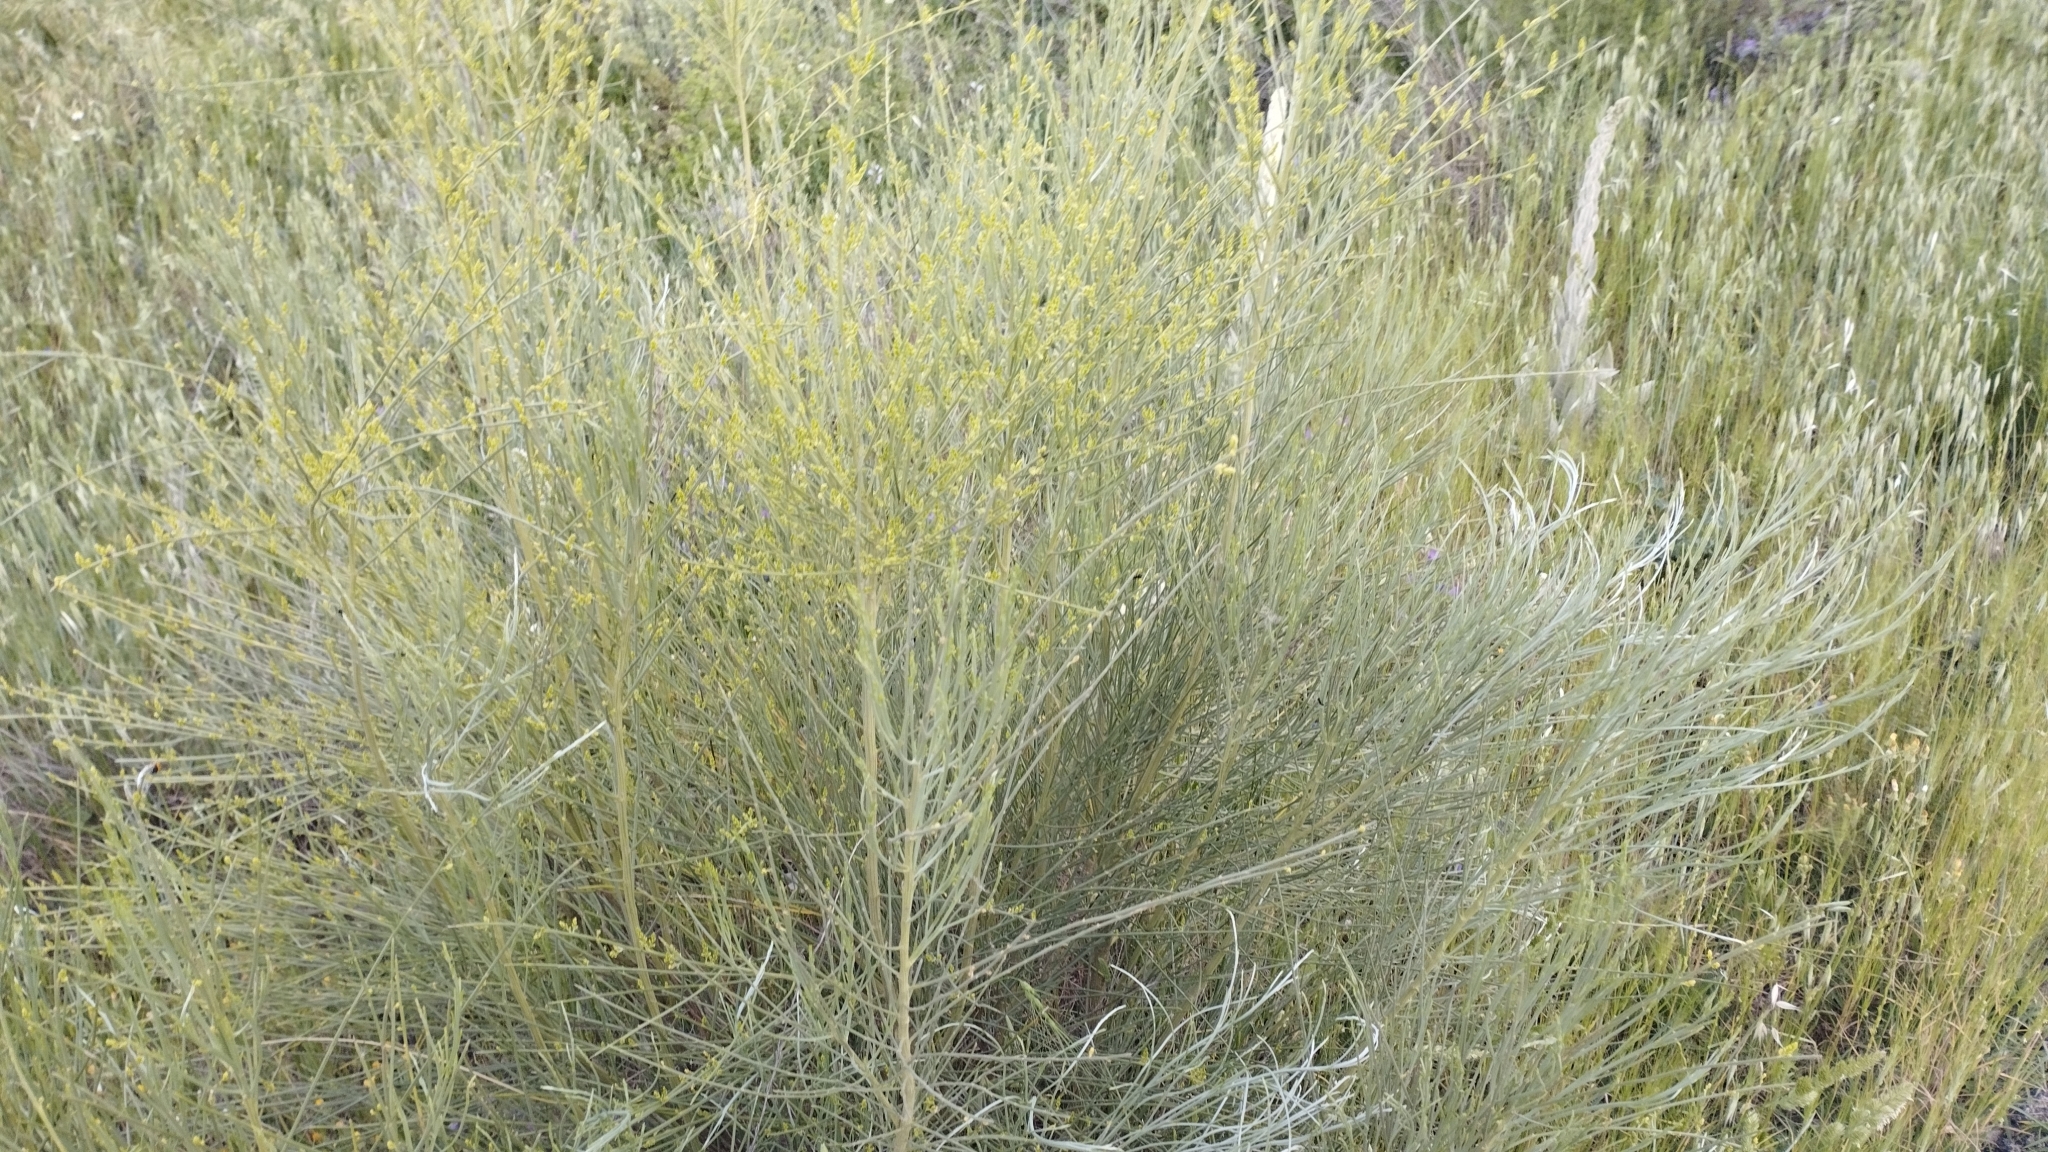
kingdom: Plantae
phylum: Tracheophyta
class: Magnoliopsida
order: Fabales
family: Fabaceae
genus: Retama
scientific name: Retama sphaerocarpa
